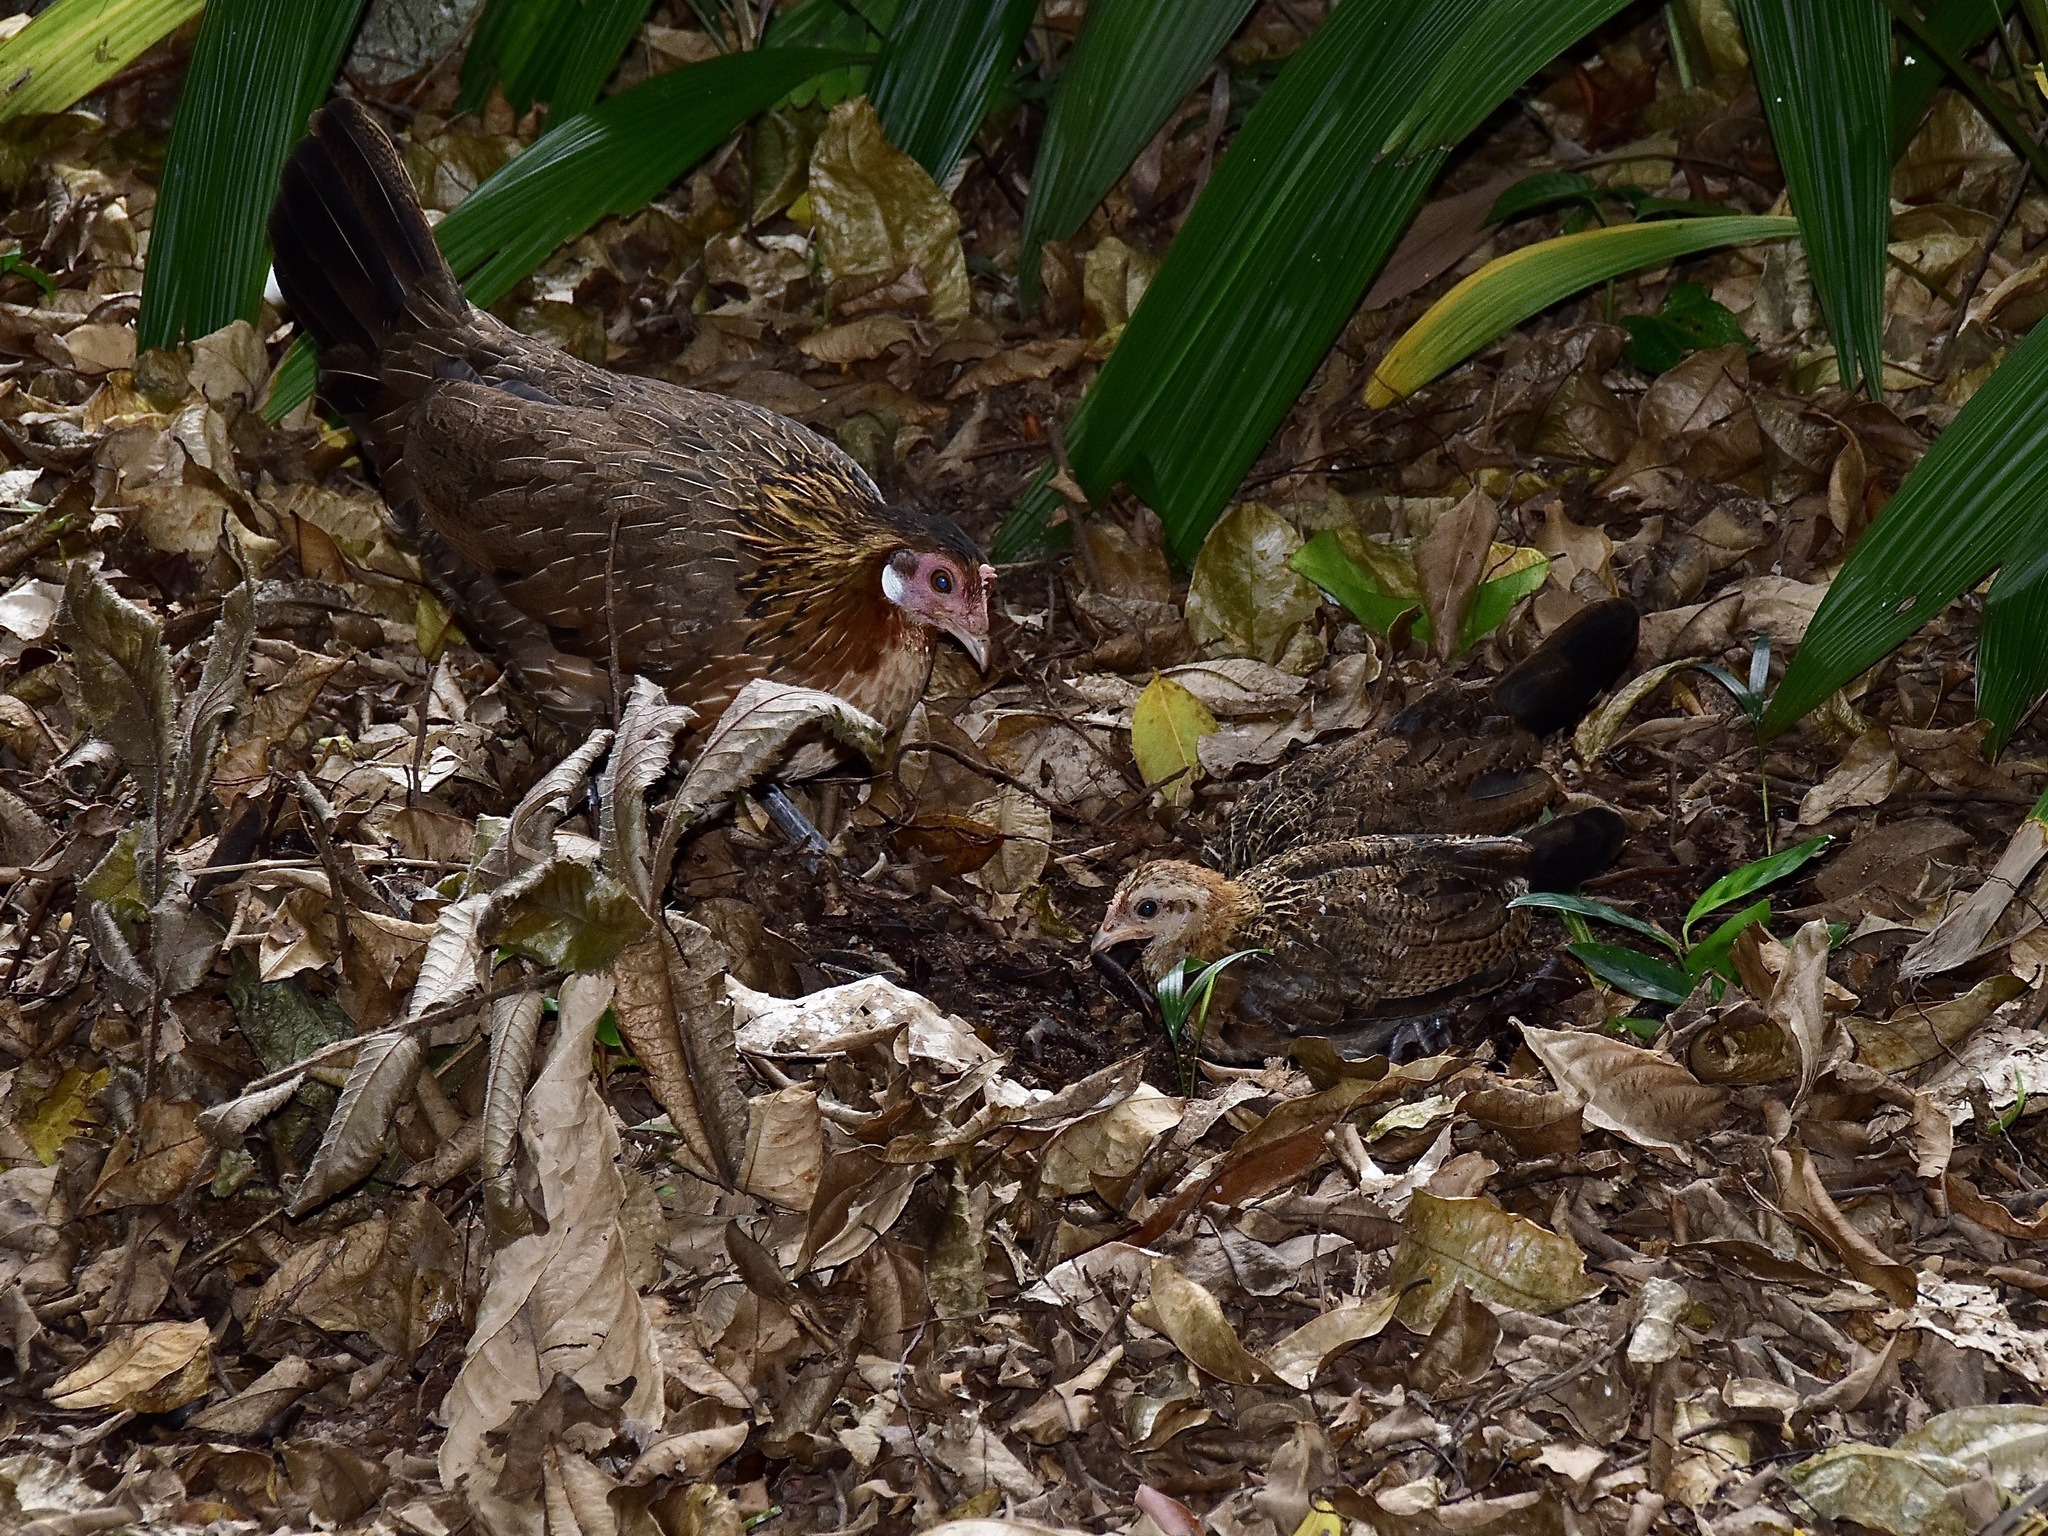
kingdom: Animalia
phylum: Chordata
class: Aves
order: Galliformes
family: Phasianidae
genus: Gallus
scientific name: Gallus gallus
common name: Red junglefowl
